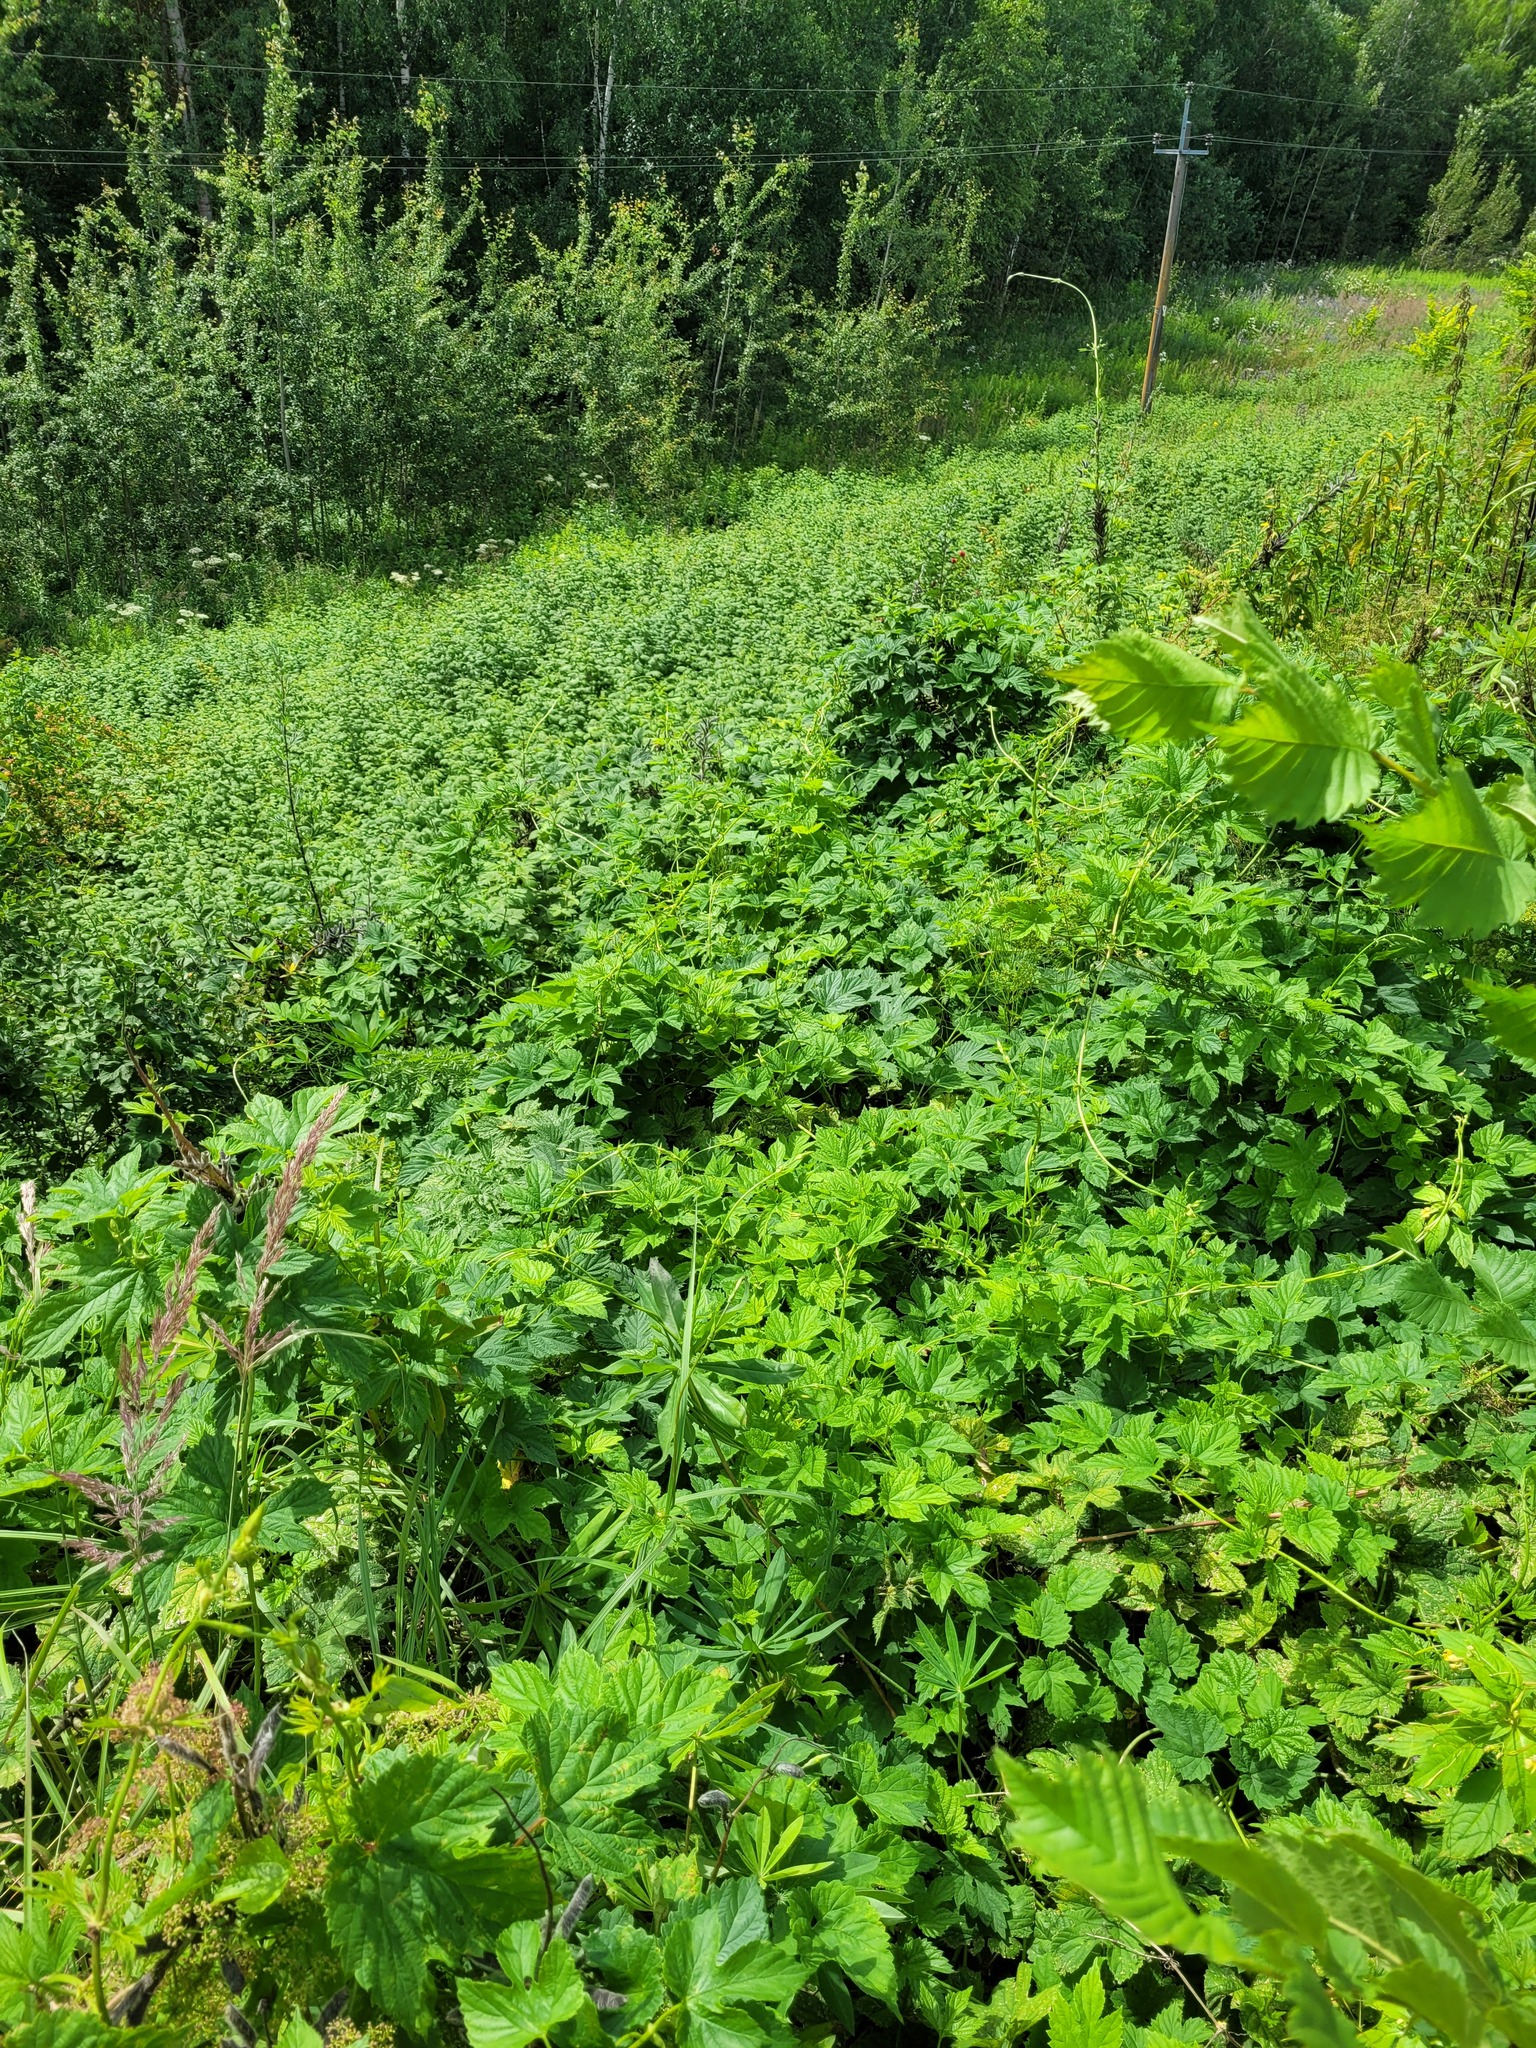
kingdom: Plantae
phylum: Tracheophyta
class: Magnoliopsida
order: Rosales
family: Cannabaceae
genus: Humulus
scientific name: Humulus lupulus
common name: Hop
